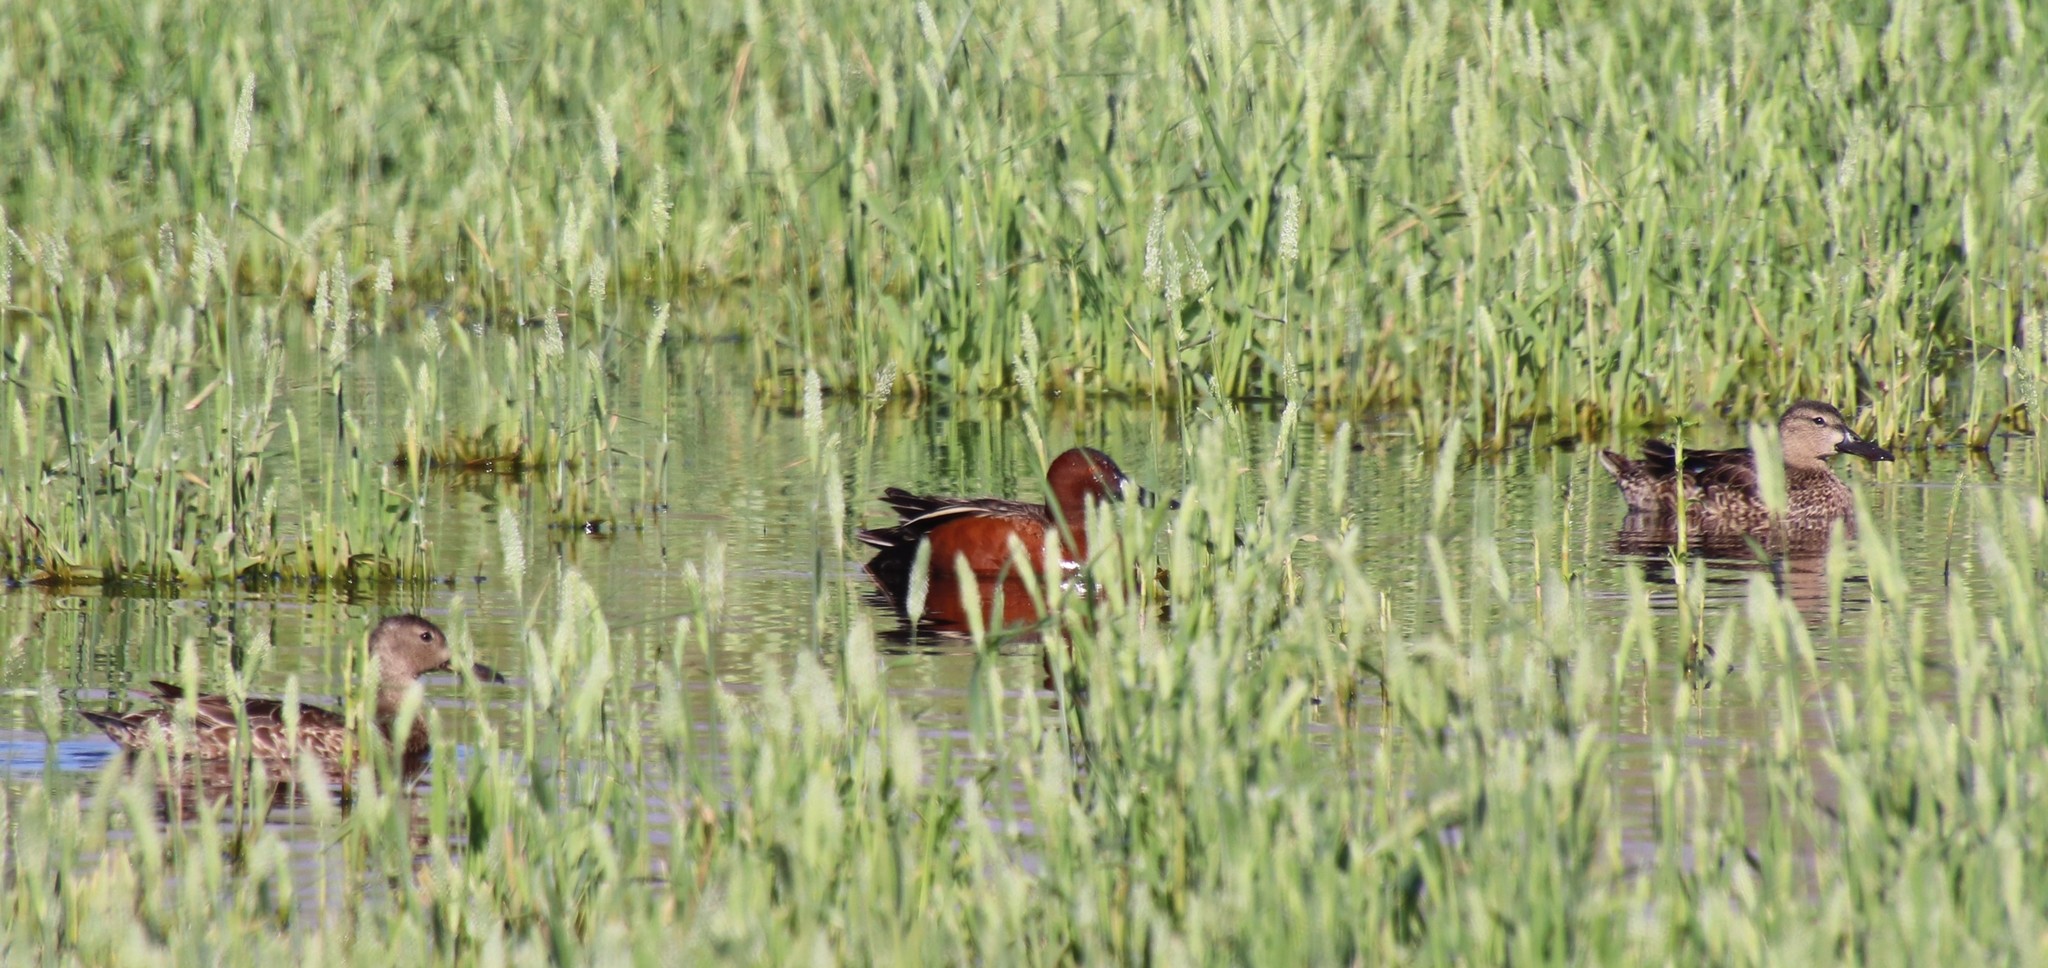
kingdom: Animalia
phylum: Chordata
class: Aves
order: Anseriformes
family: Anatidae
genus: Spatula
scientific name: Spatula cyanoptera
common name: Cinnamon teal
